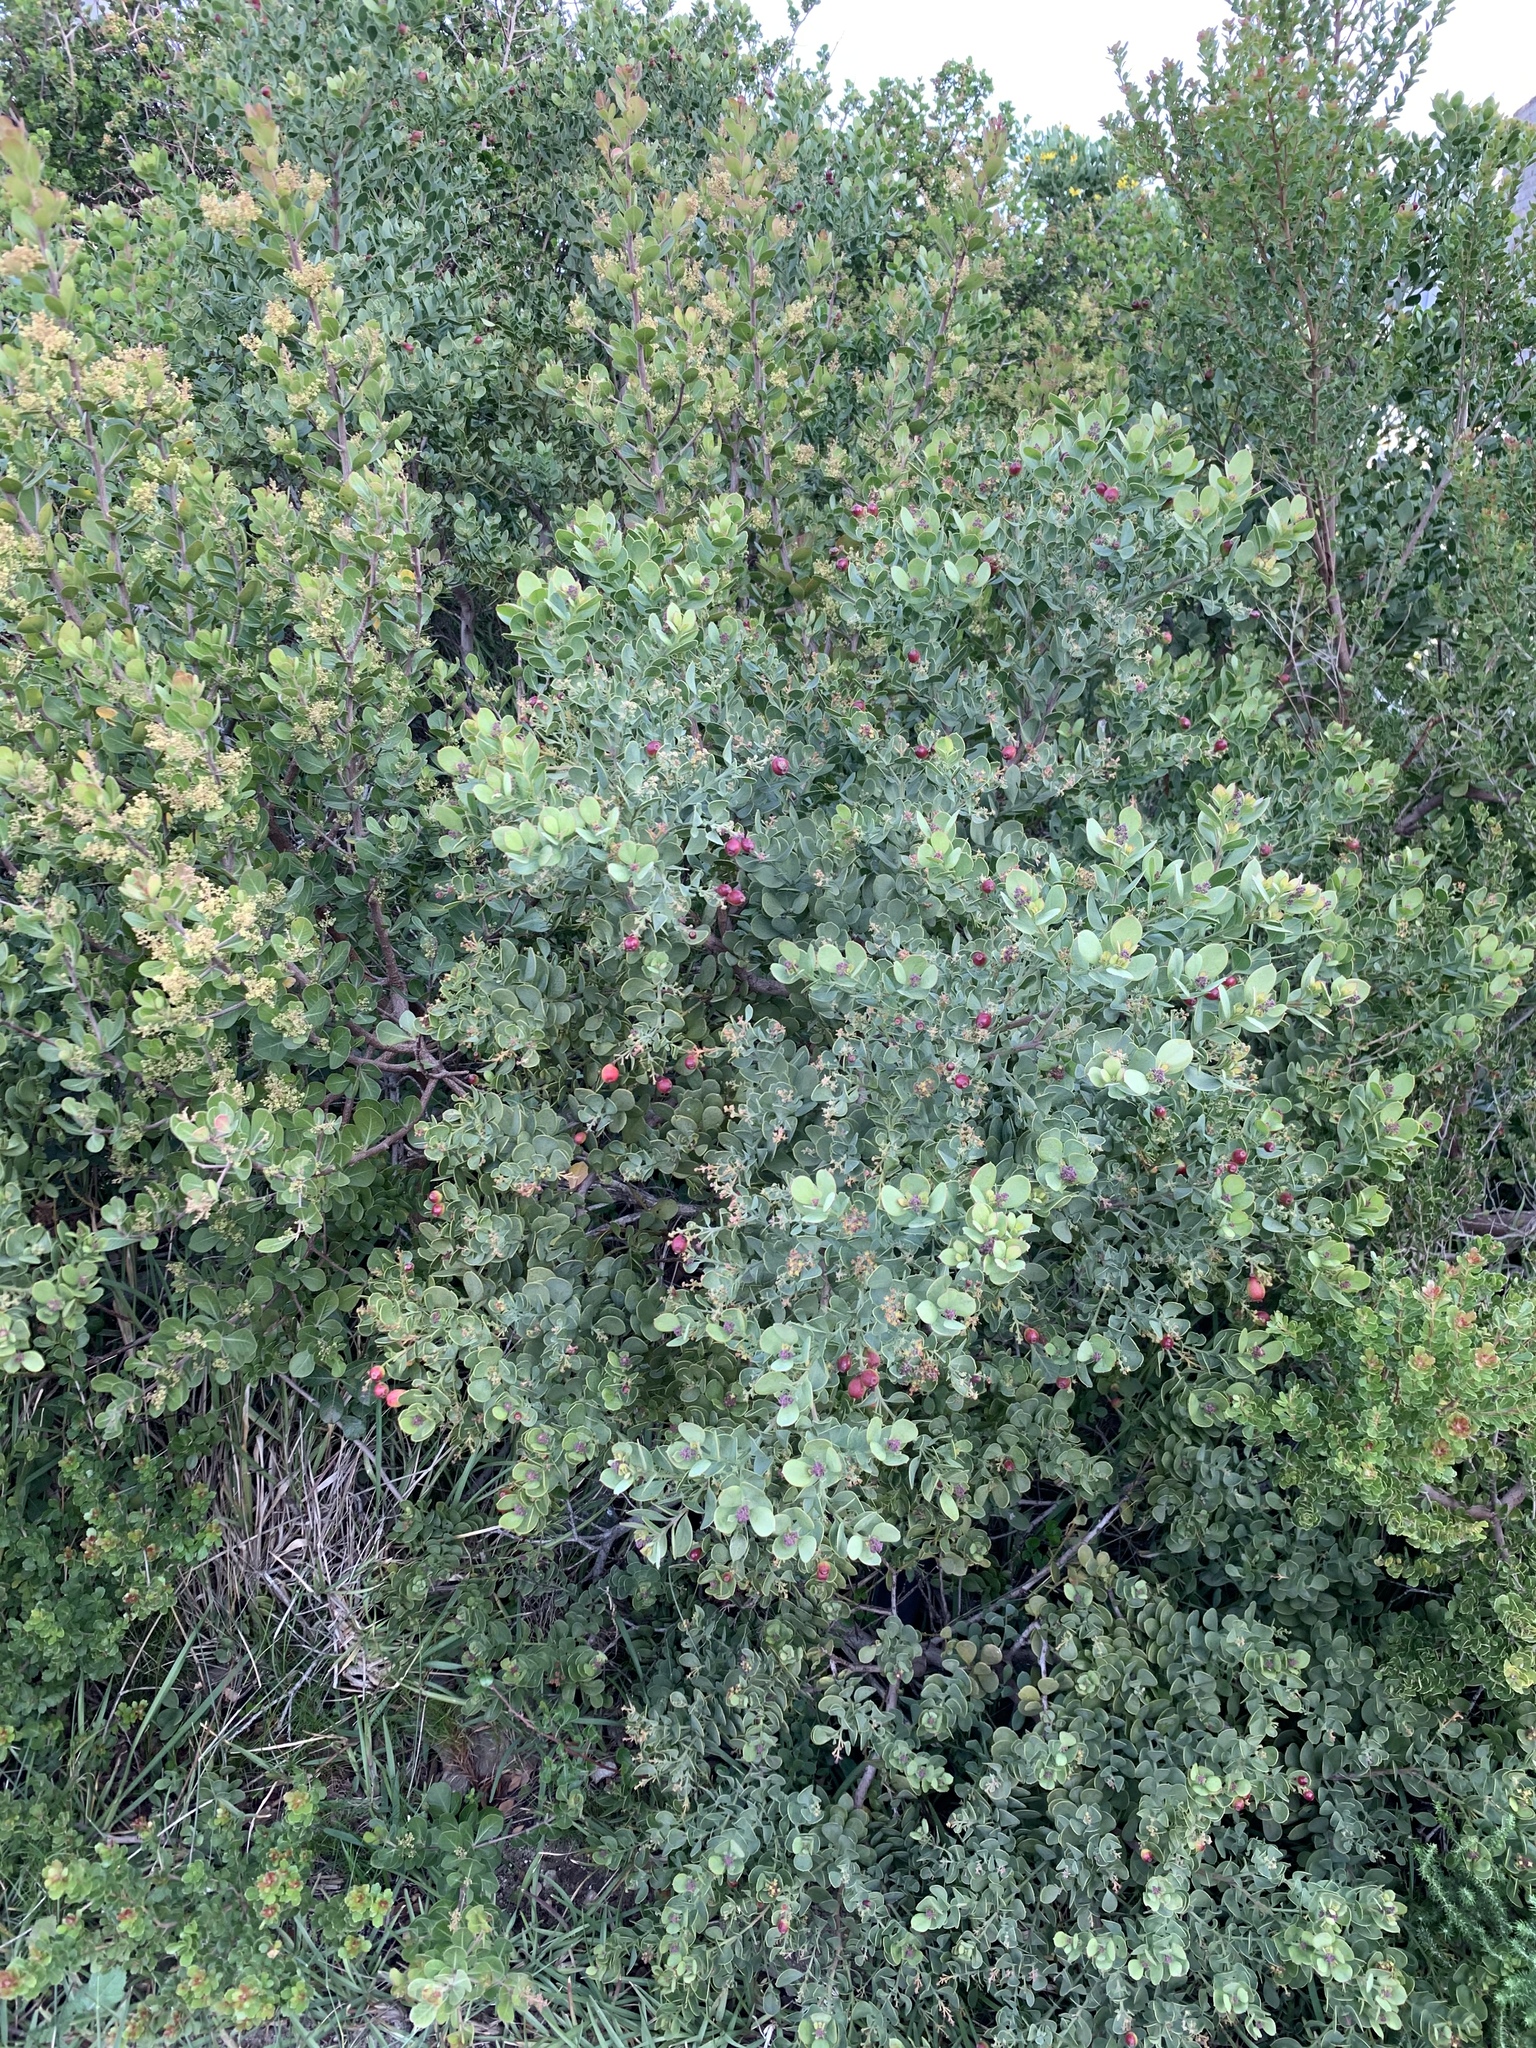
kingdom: Plantae
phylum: Tracheophyta
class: Magnoliopsida
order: Santalales
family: Santalaceae
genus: Osyris
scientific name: Osyris compressa
